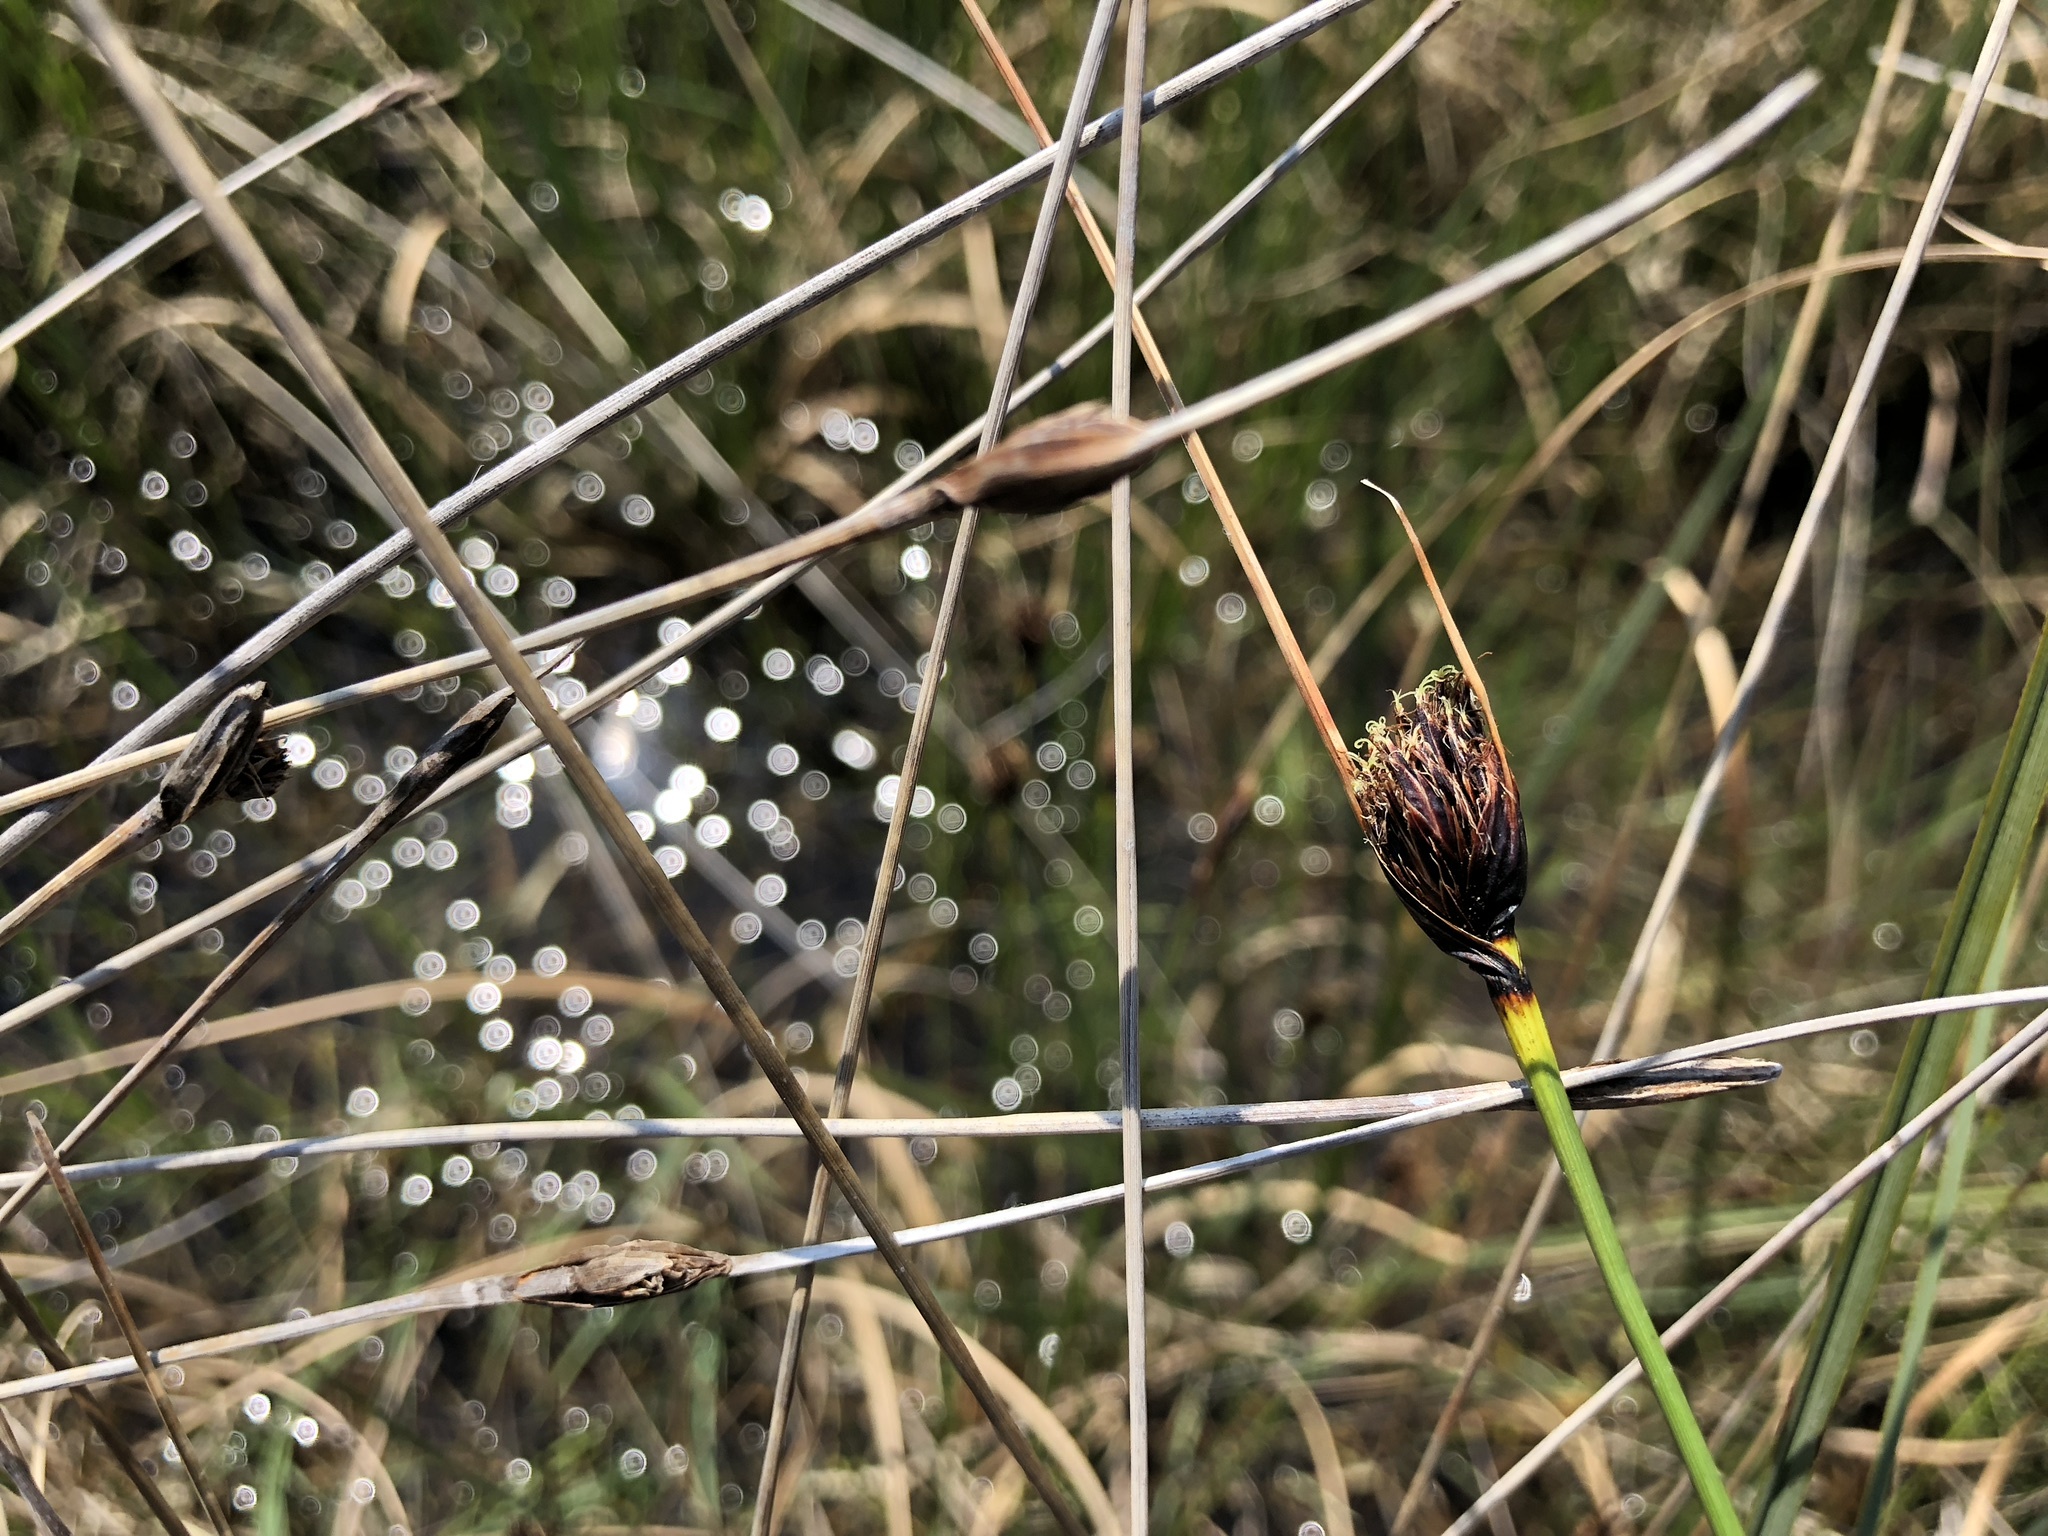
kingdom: Plantae
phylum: Tracheophyta
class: Liliopsida
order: Poales
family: Cyperaceae
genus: Schoenus
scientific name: Schoenus nigricans
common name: Black bog-rush
